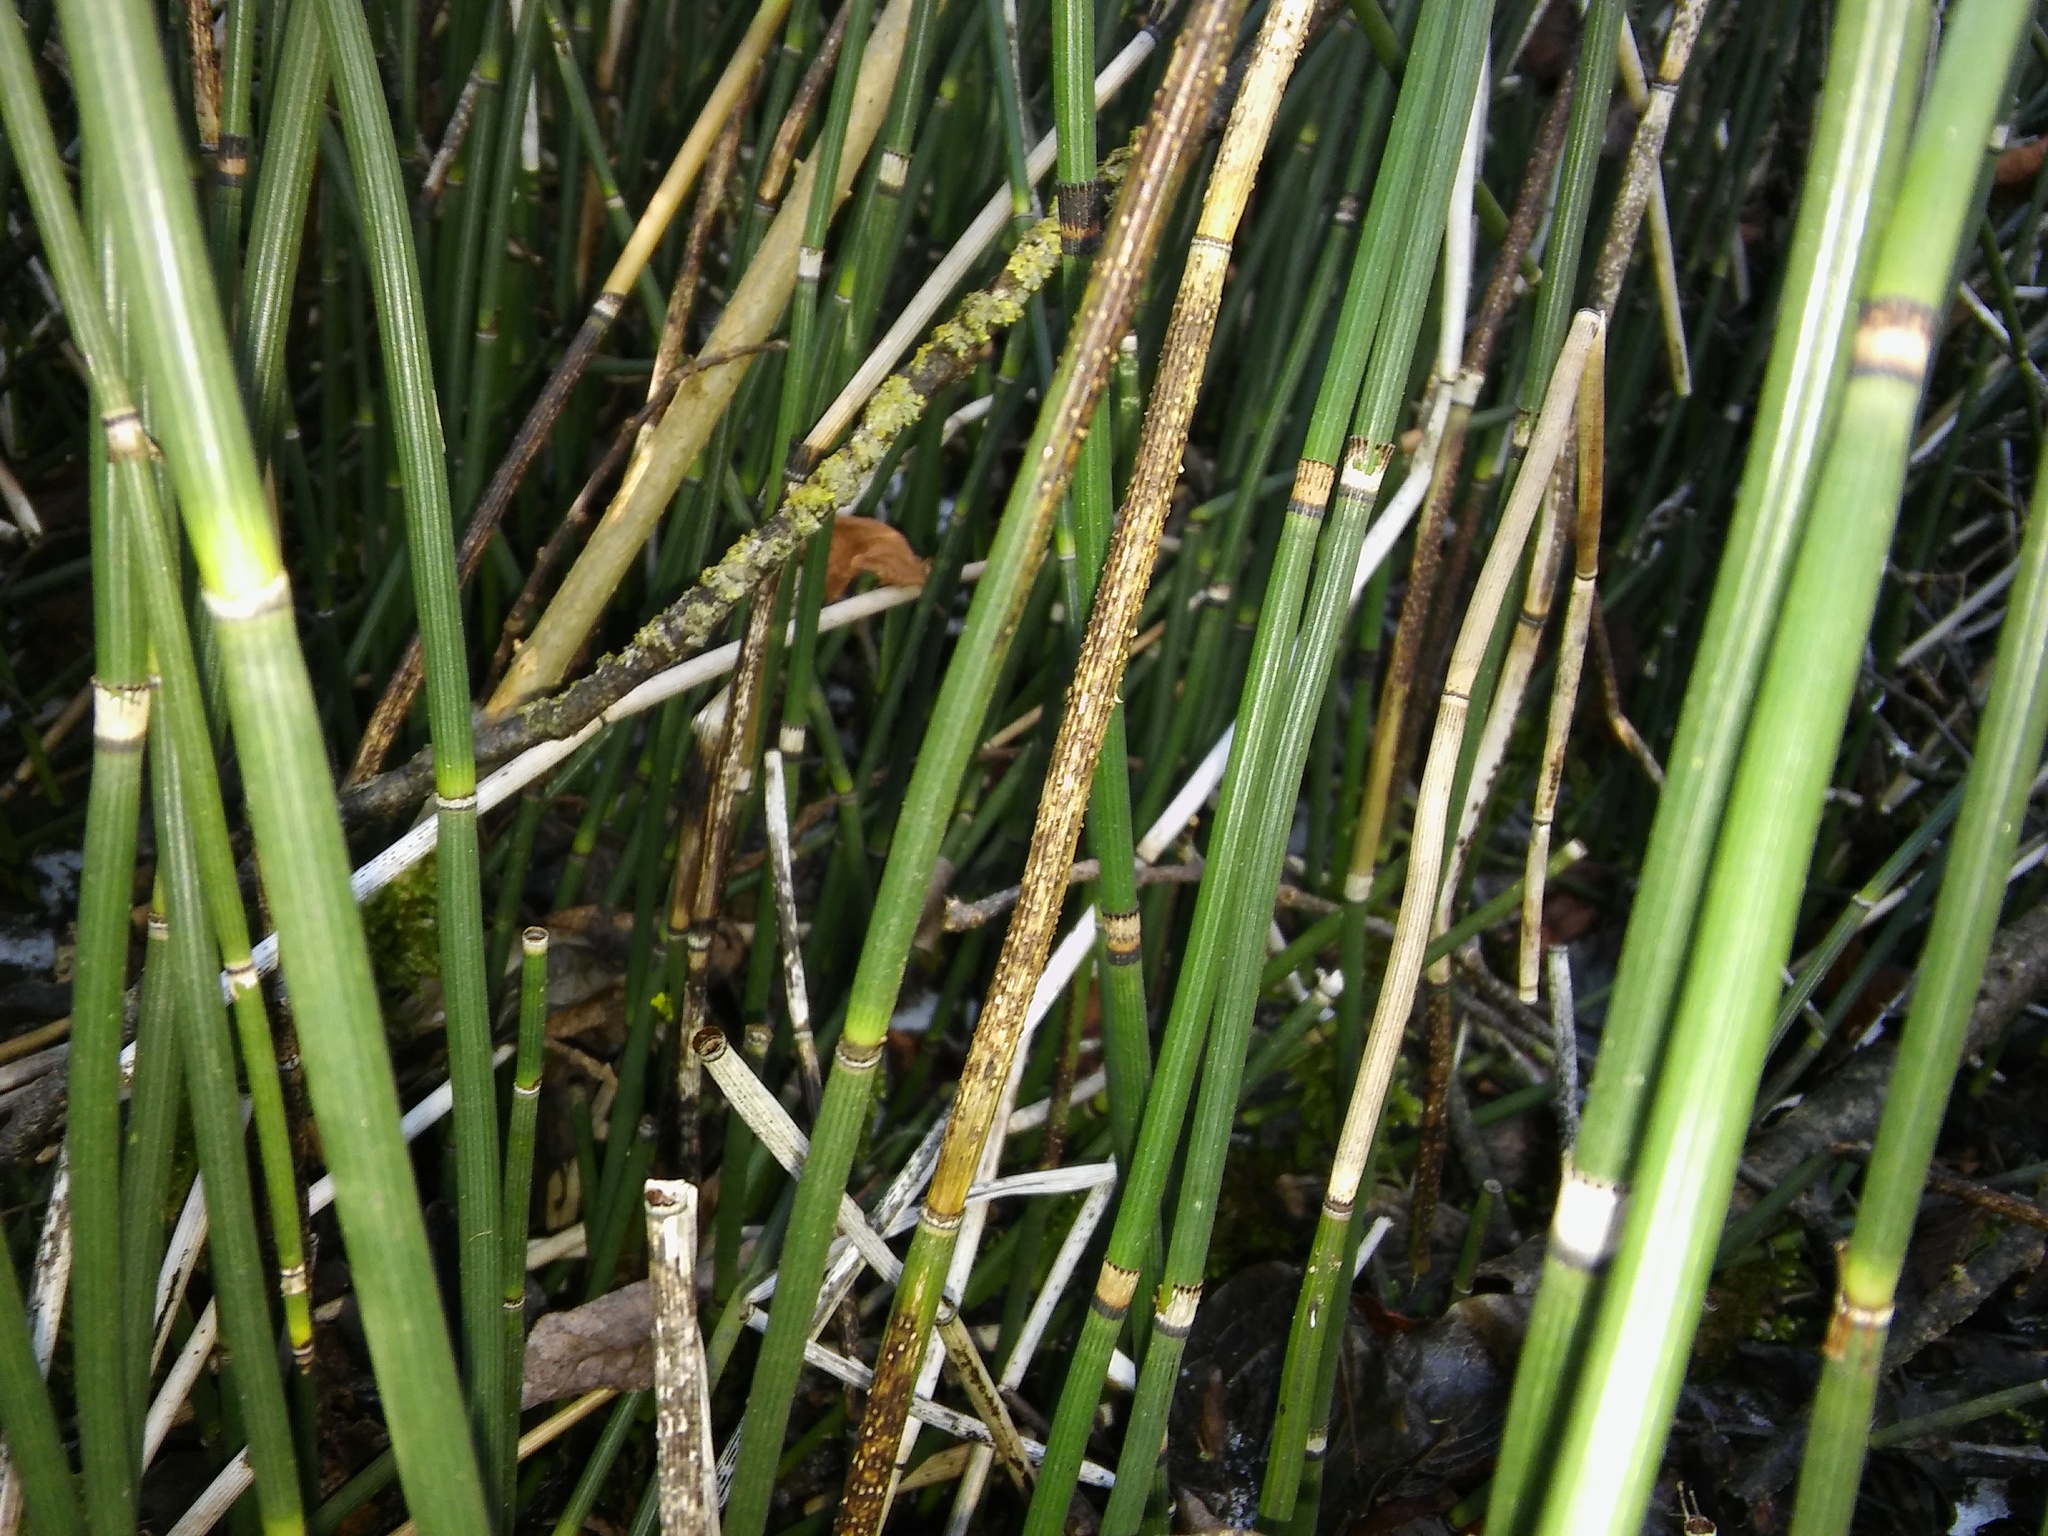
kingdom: Plantae
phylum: Tracheophyta
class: Polypodiopsida
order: Equisetales
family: Equisetaceae
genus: Equisetum
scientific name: Equisetum hyemale
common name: Rough horsetail
